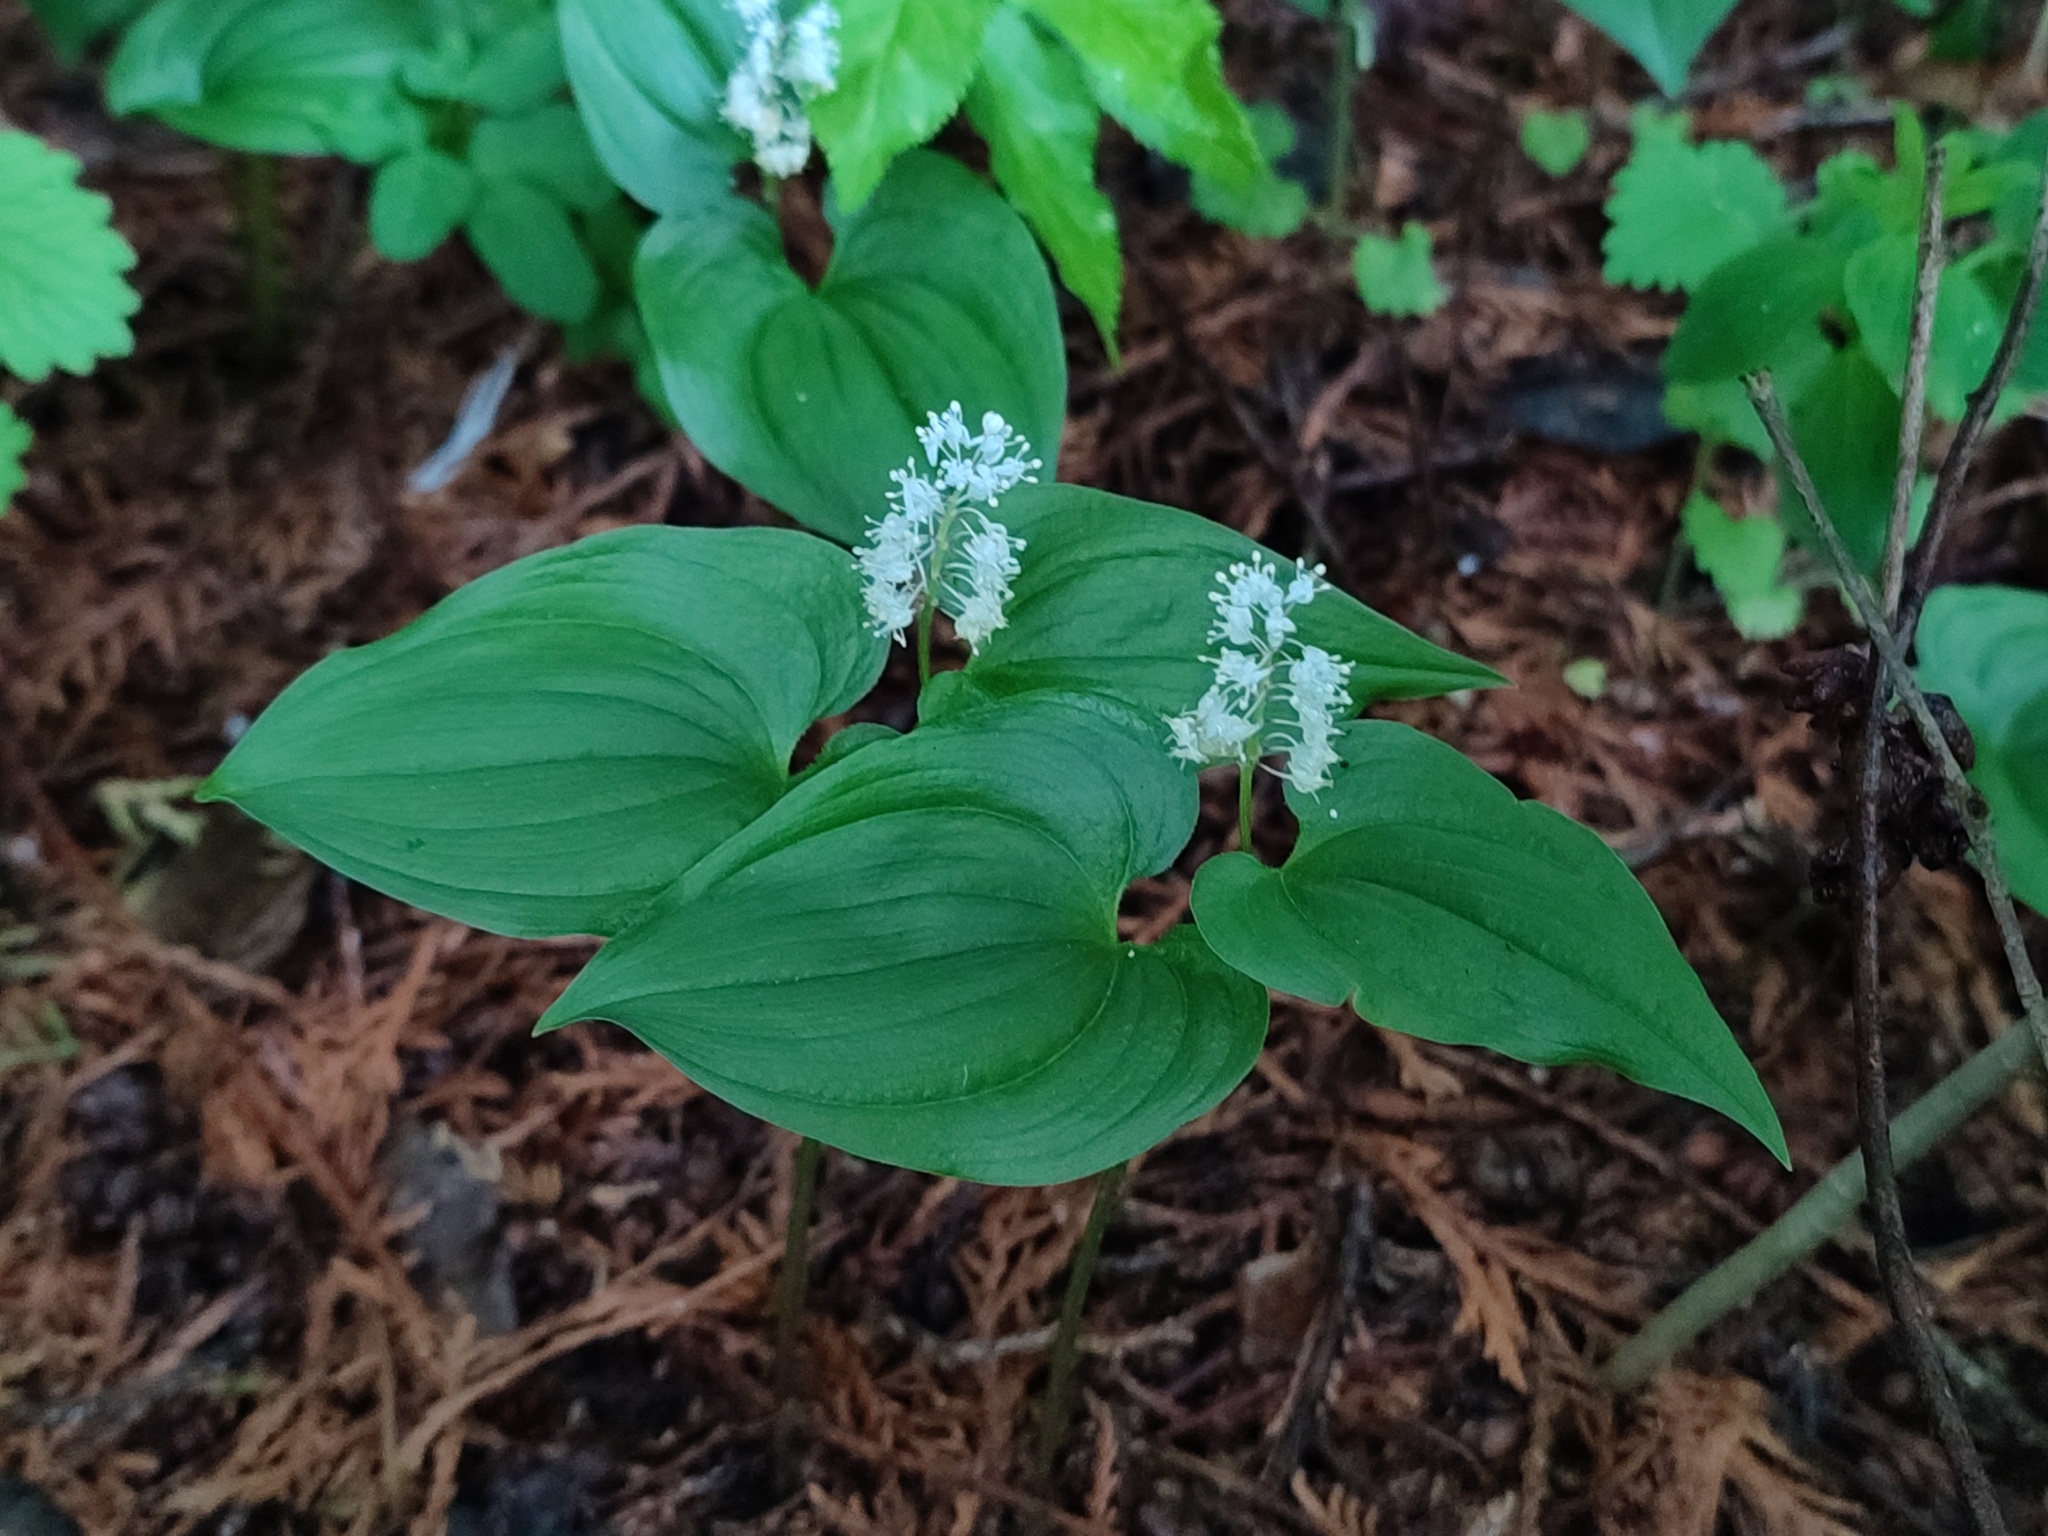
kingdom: Plantae
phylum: Tracheophyta
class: Liliopsida
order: Asparagales
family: Asparagaceae
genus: Maianthemum
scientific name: Maianthemum bifolium
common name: May lily
